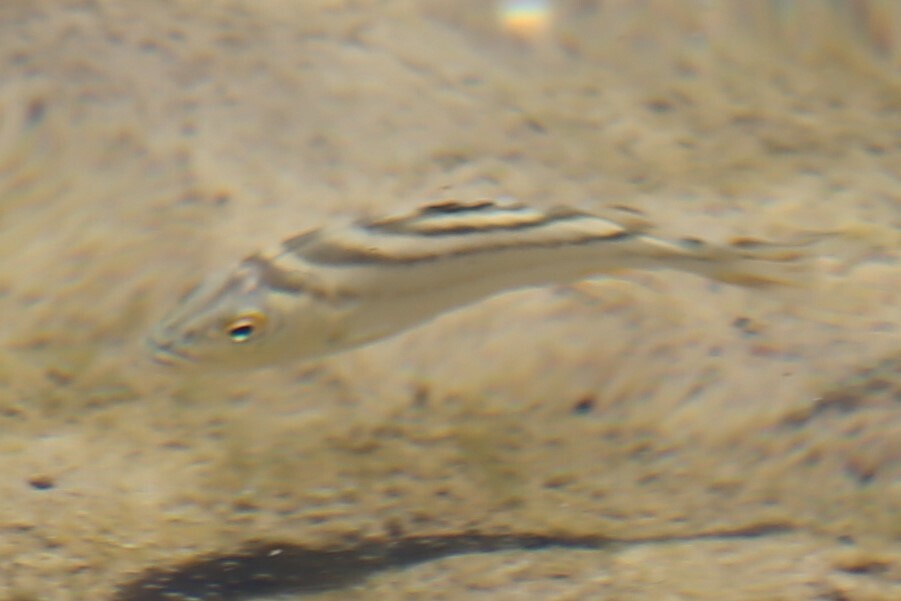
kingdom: Animalia
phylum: Chordata
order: Perciformes
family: Terapontidae
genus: Terapon
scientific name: Terapon jarbua
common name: Jarbua terapon
